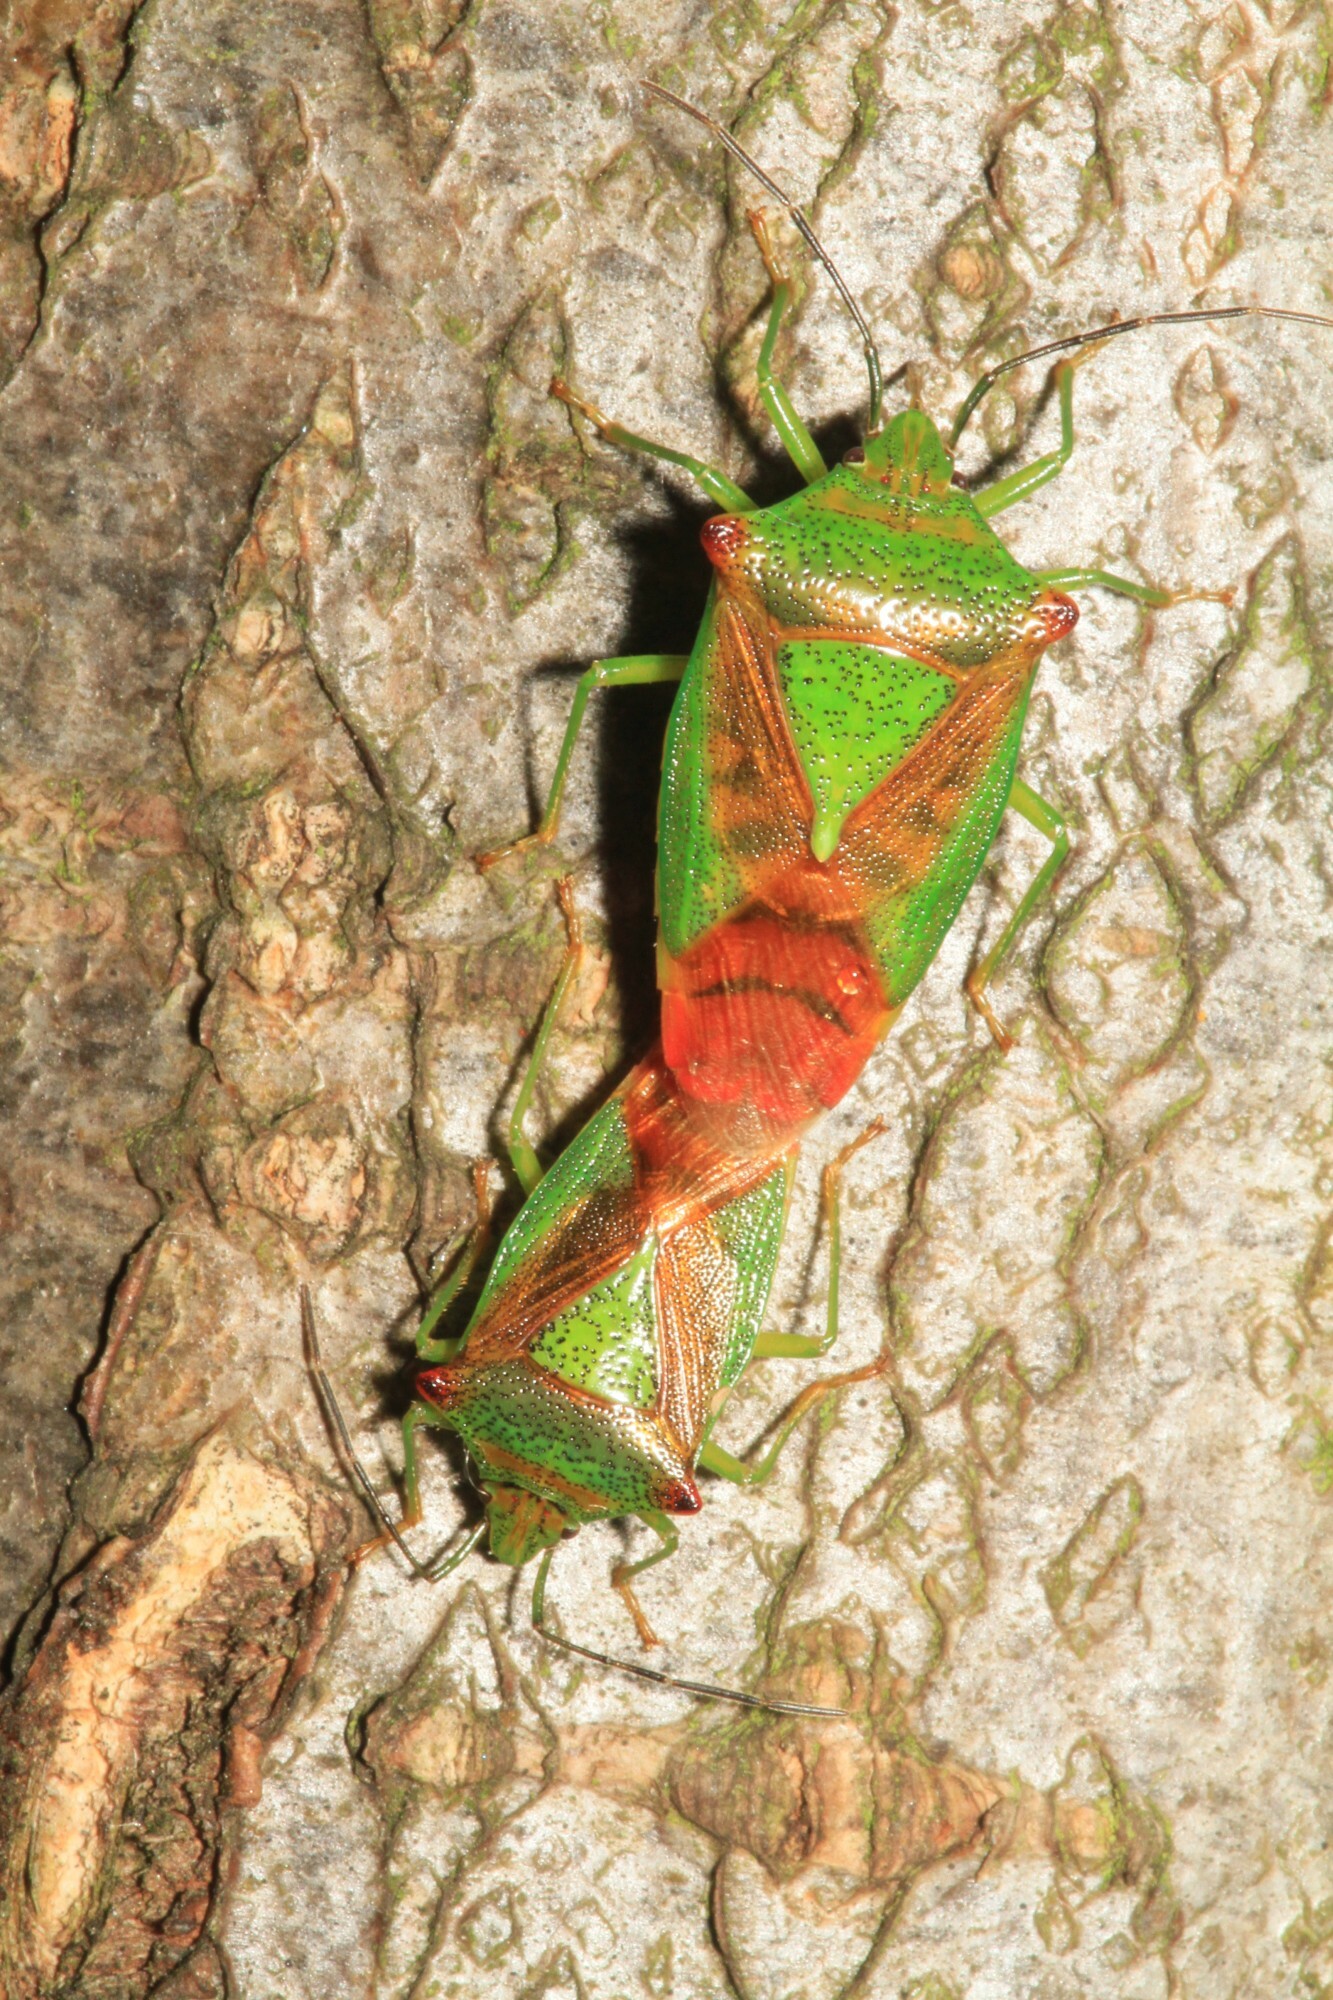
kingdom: Animalia
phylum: Arthropoda
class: Insecta
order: Hemiptera
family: Acanthosomatidae
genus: Acanthosoma
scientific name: Acanthosoma haemorrhoidale
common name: Hawthorn shieldbug
